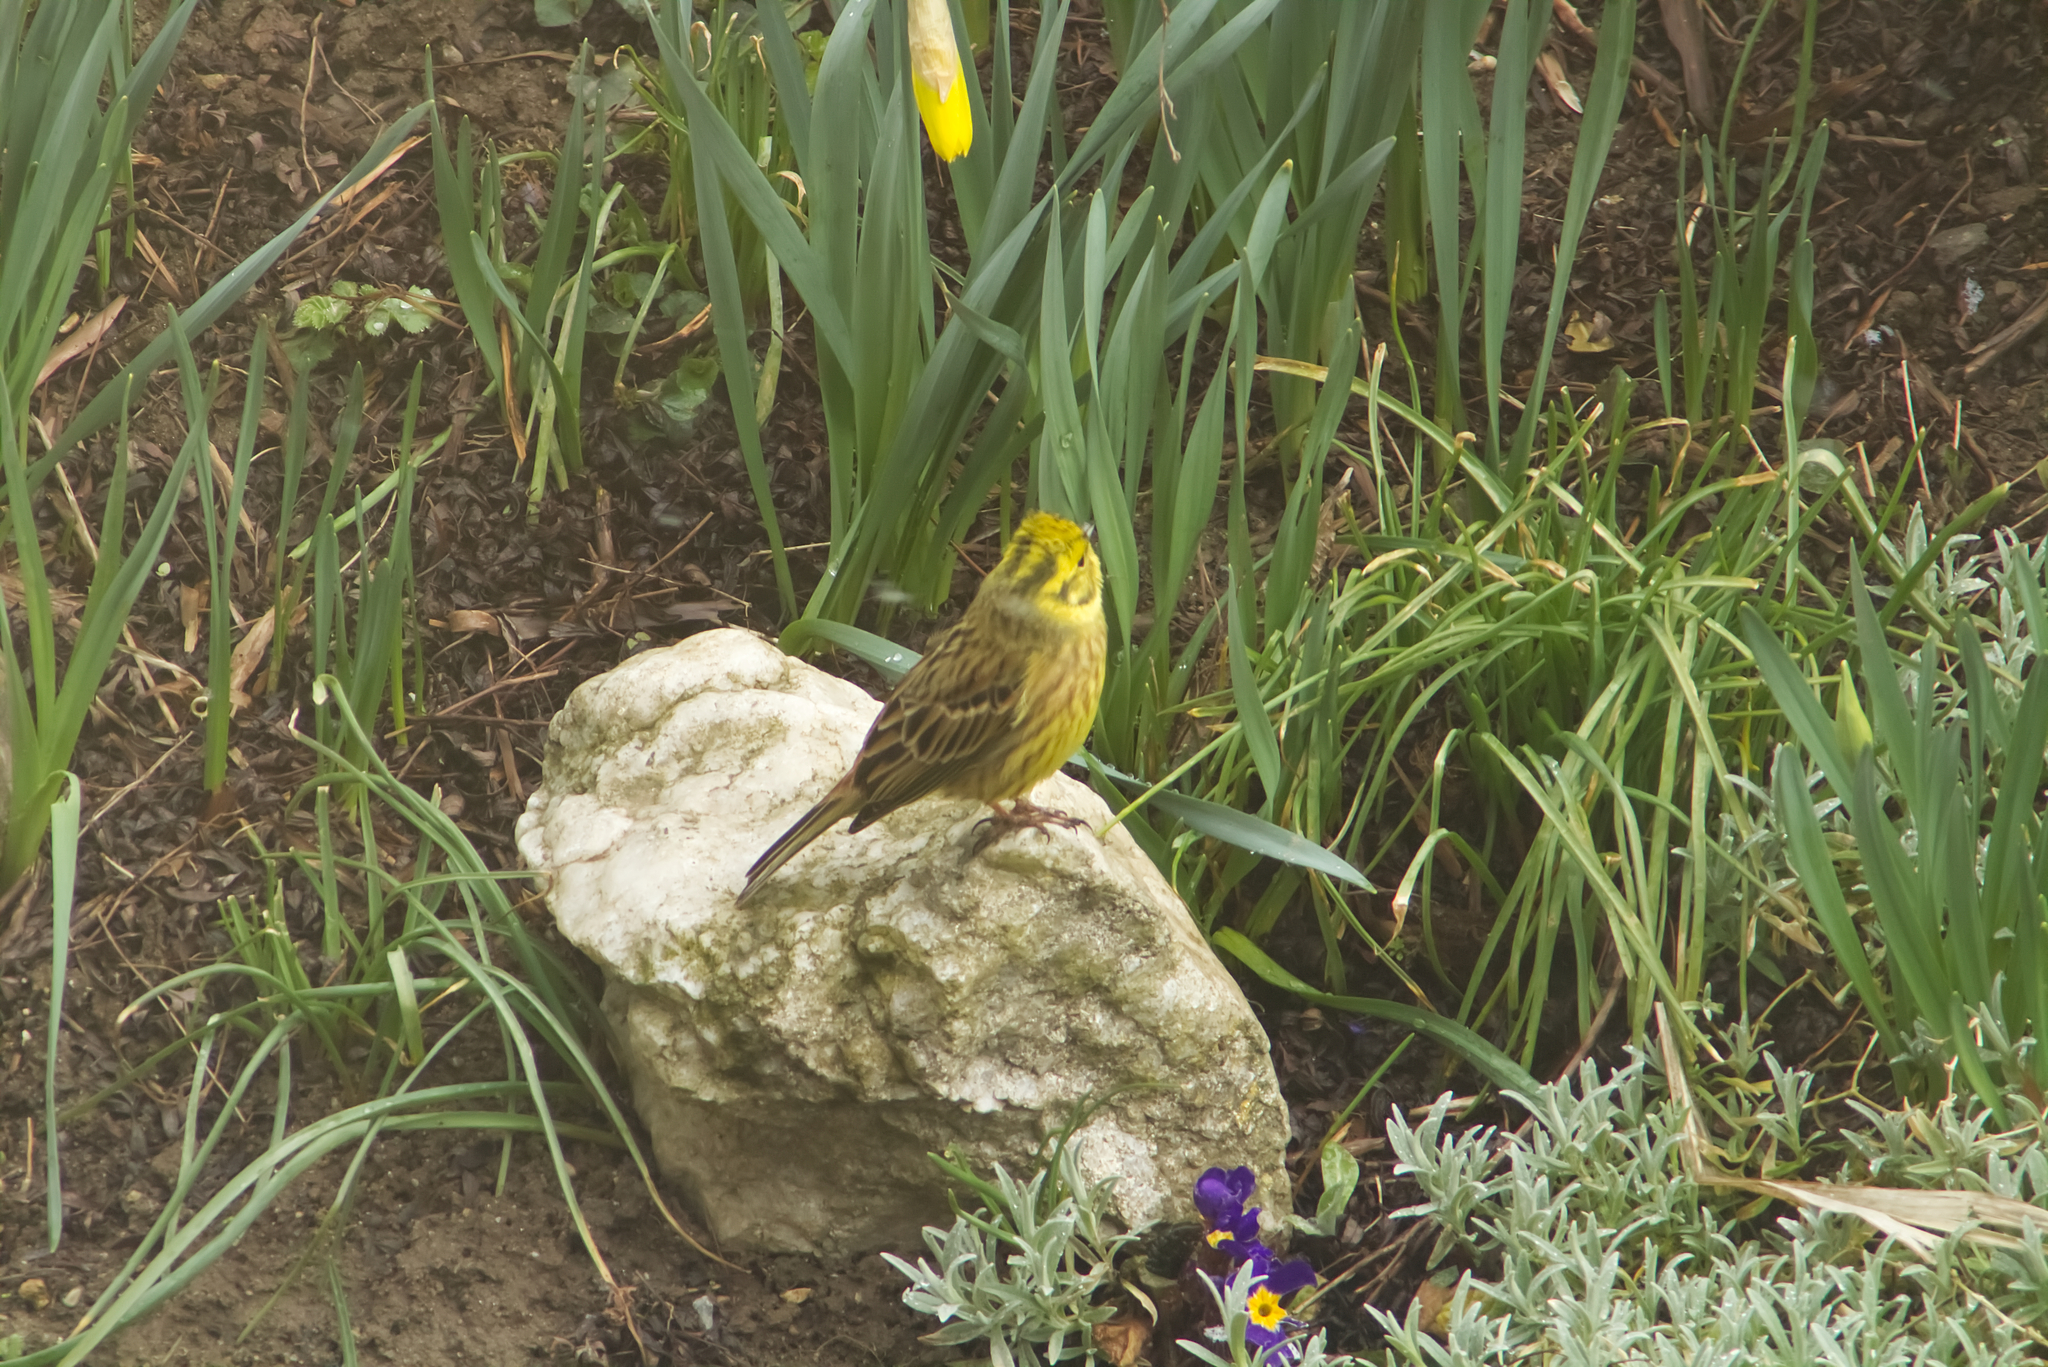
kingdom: Animalia
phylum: Chordata
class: Aves
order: Passeriformes
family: Emberizidae
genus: Emberiza
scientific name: Emberiza citrinella
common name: Yellowhammer
